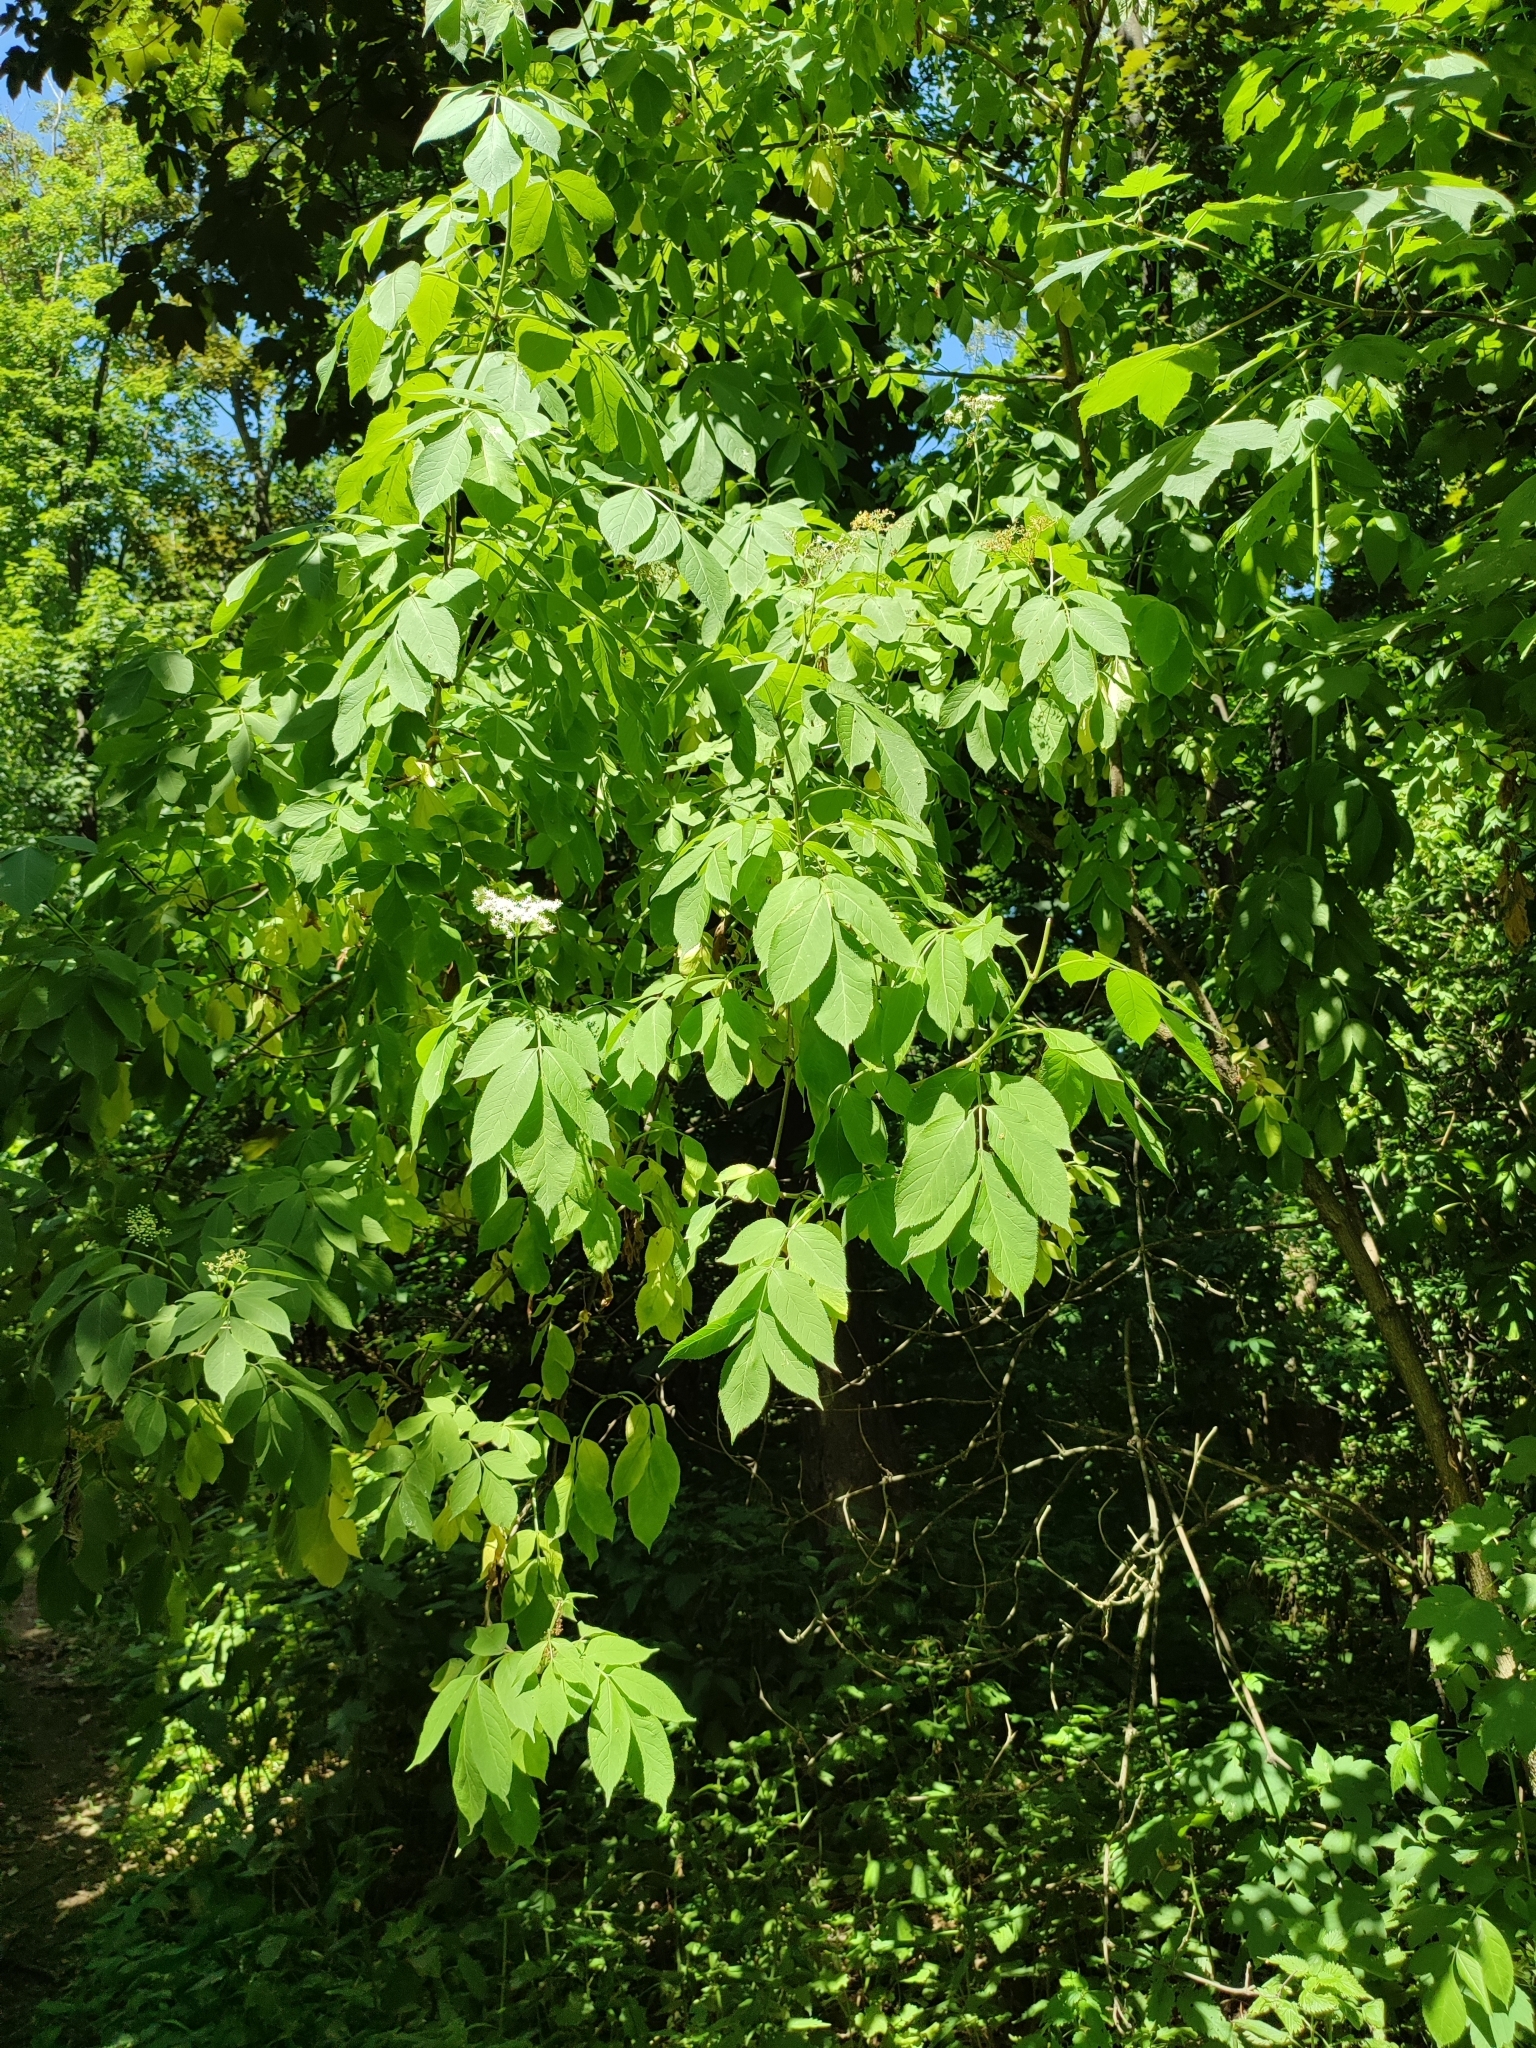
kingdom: Plantae
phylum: Tracheophyta
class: Magnoliopsida
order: Dipsacales
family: Viburnaceae
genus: Sambucus
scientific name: Sambucus nigra
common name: Elder
